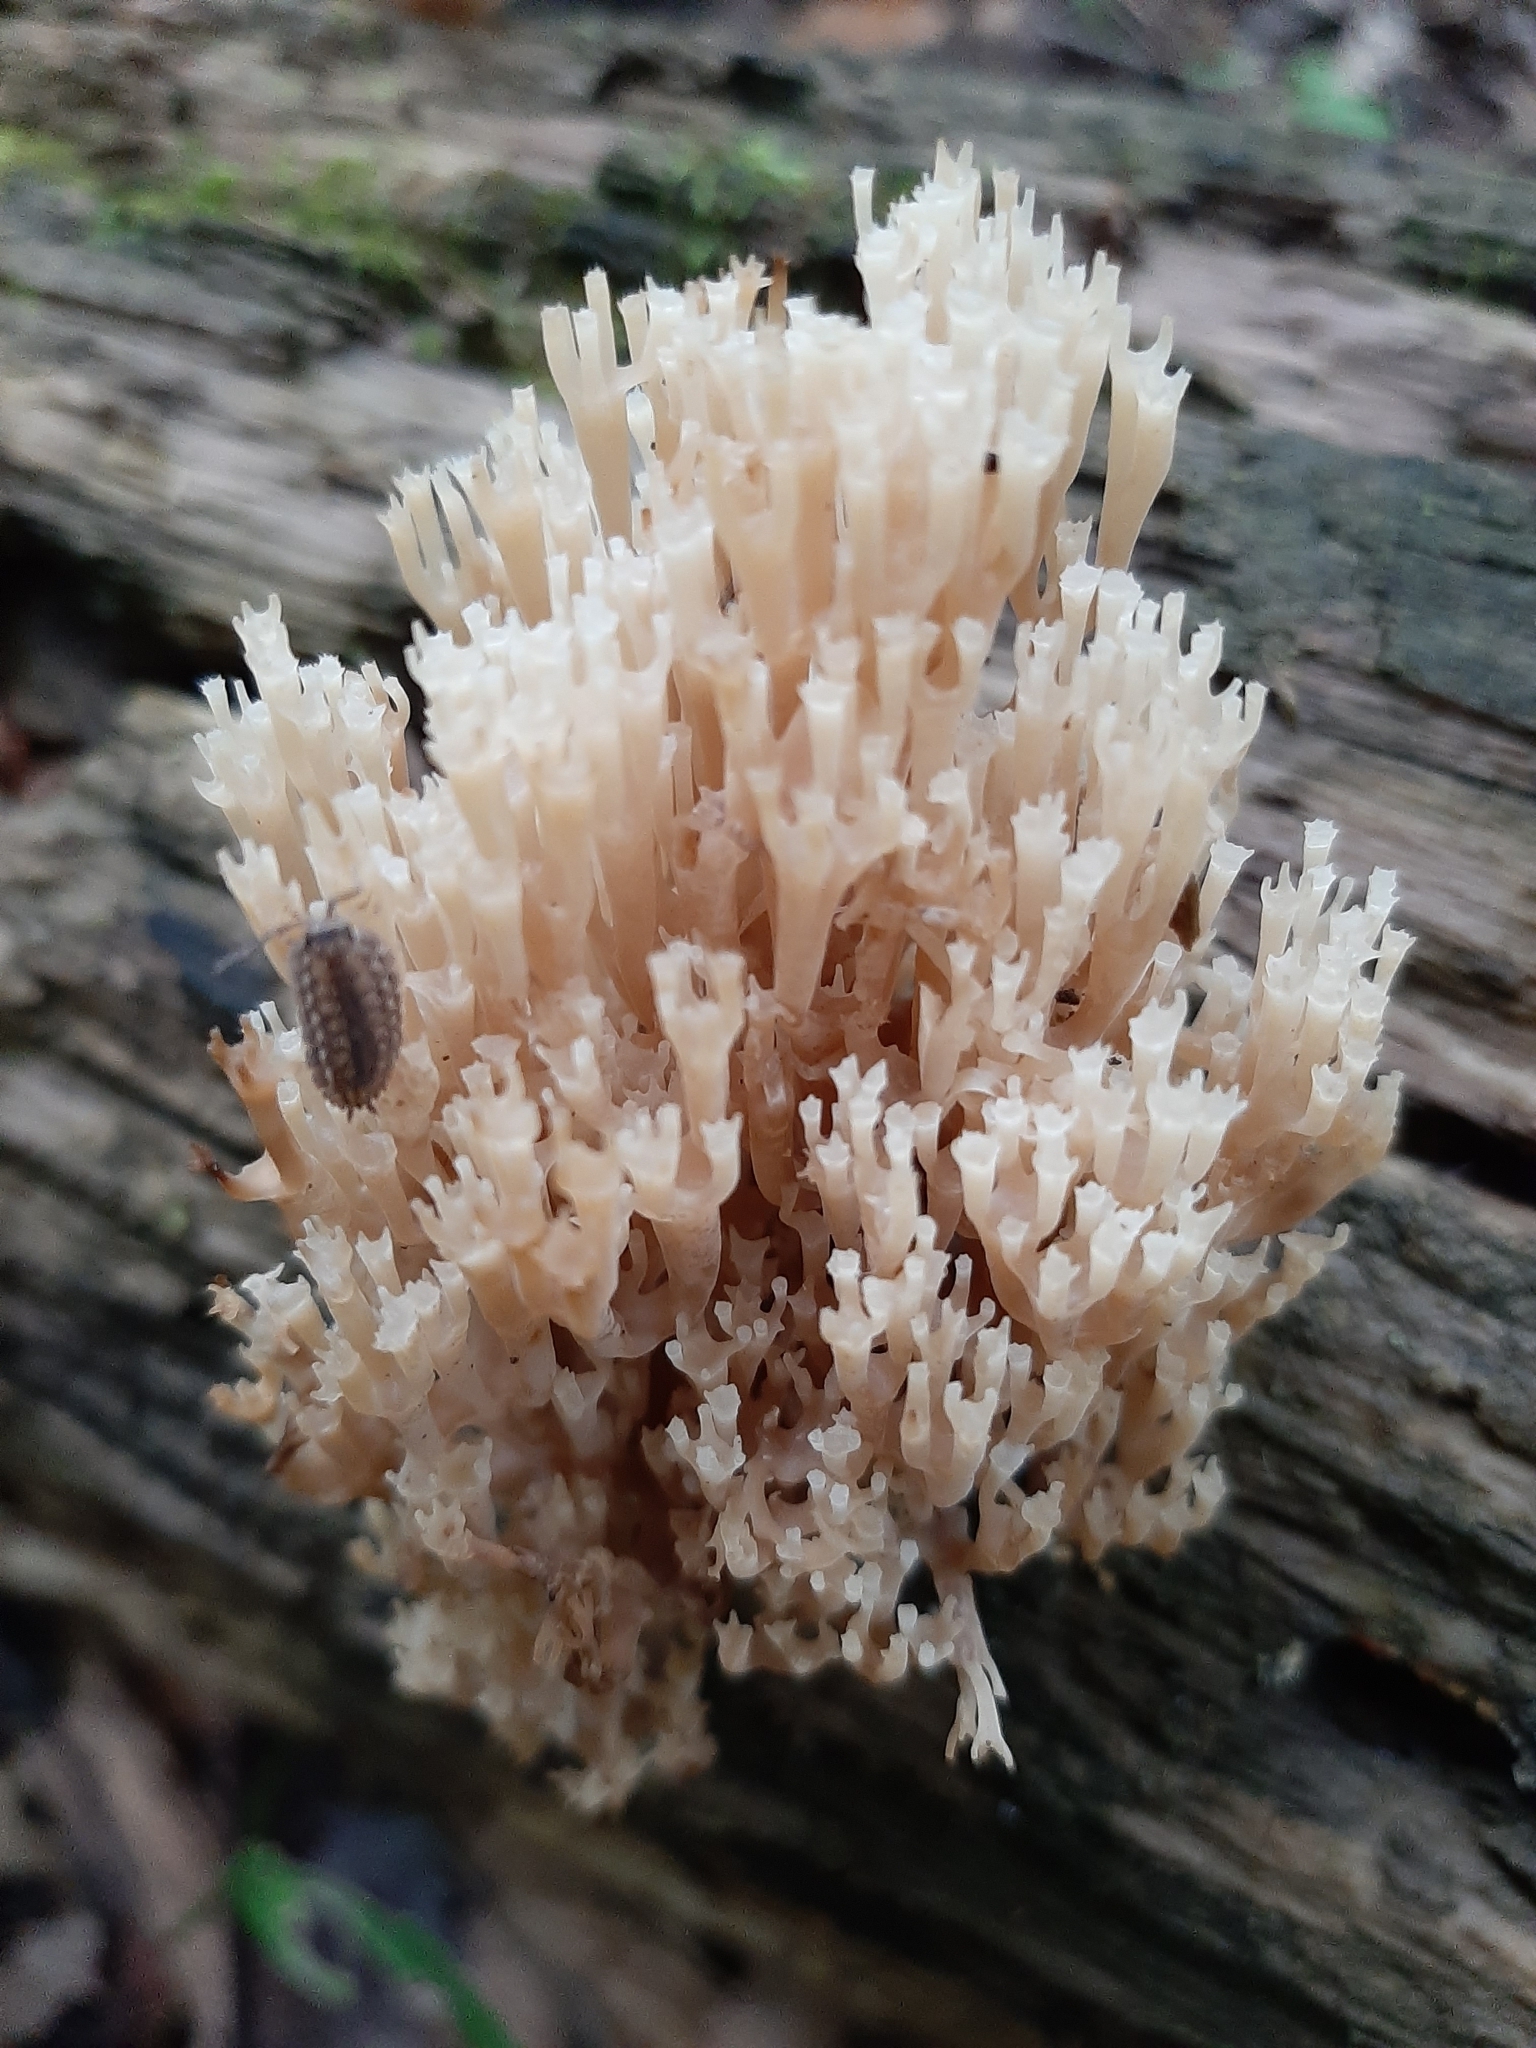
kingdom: Fungi
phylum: Basidiomycota
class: Agaricomycetes
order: Russulales
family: Auriscalpiaceae
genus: Artomyces
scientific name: Artomyces pyxidatus
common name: Crown-tipped coral fungus
